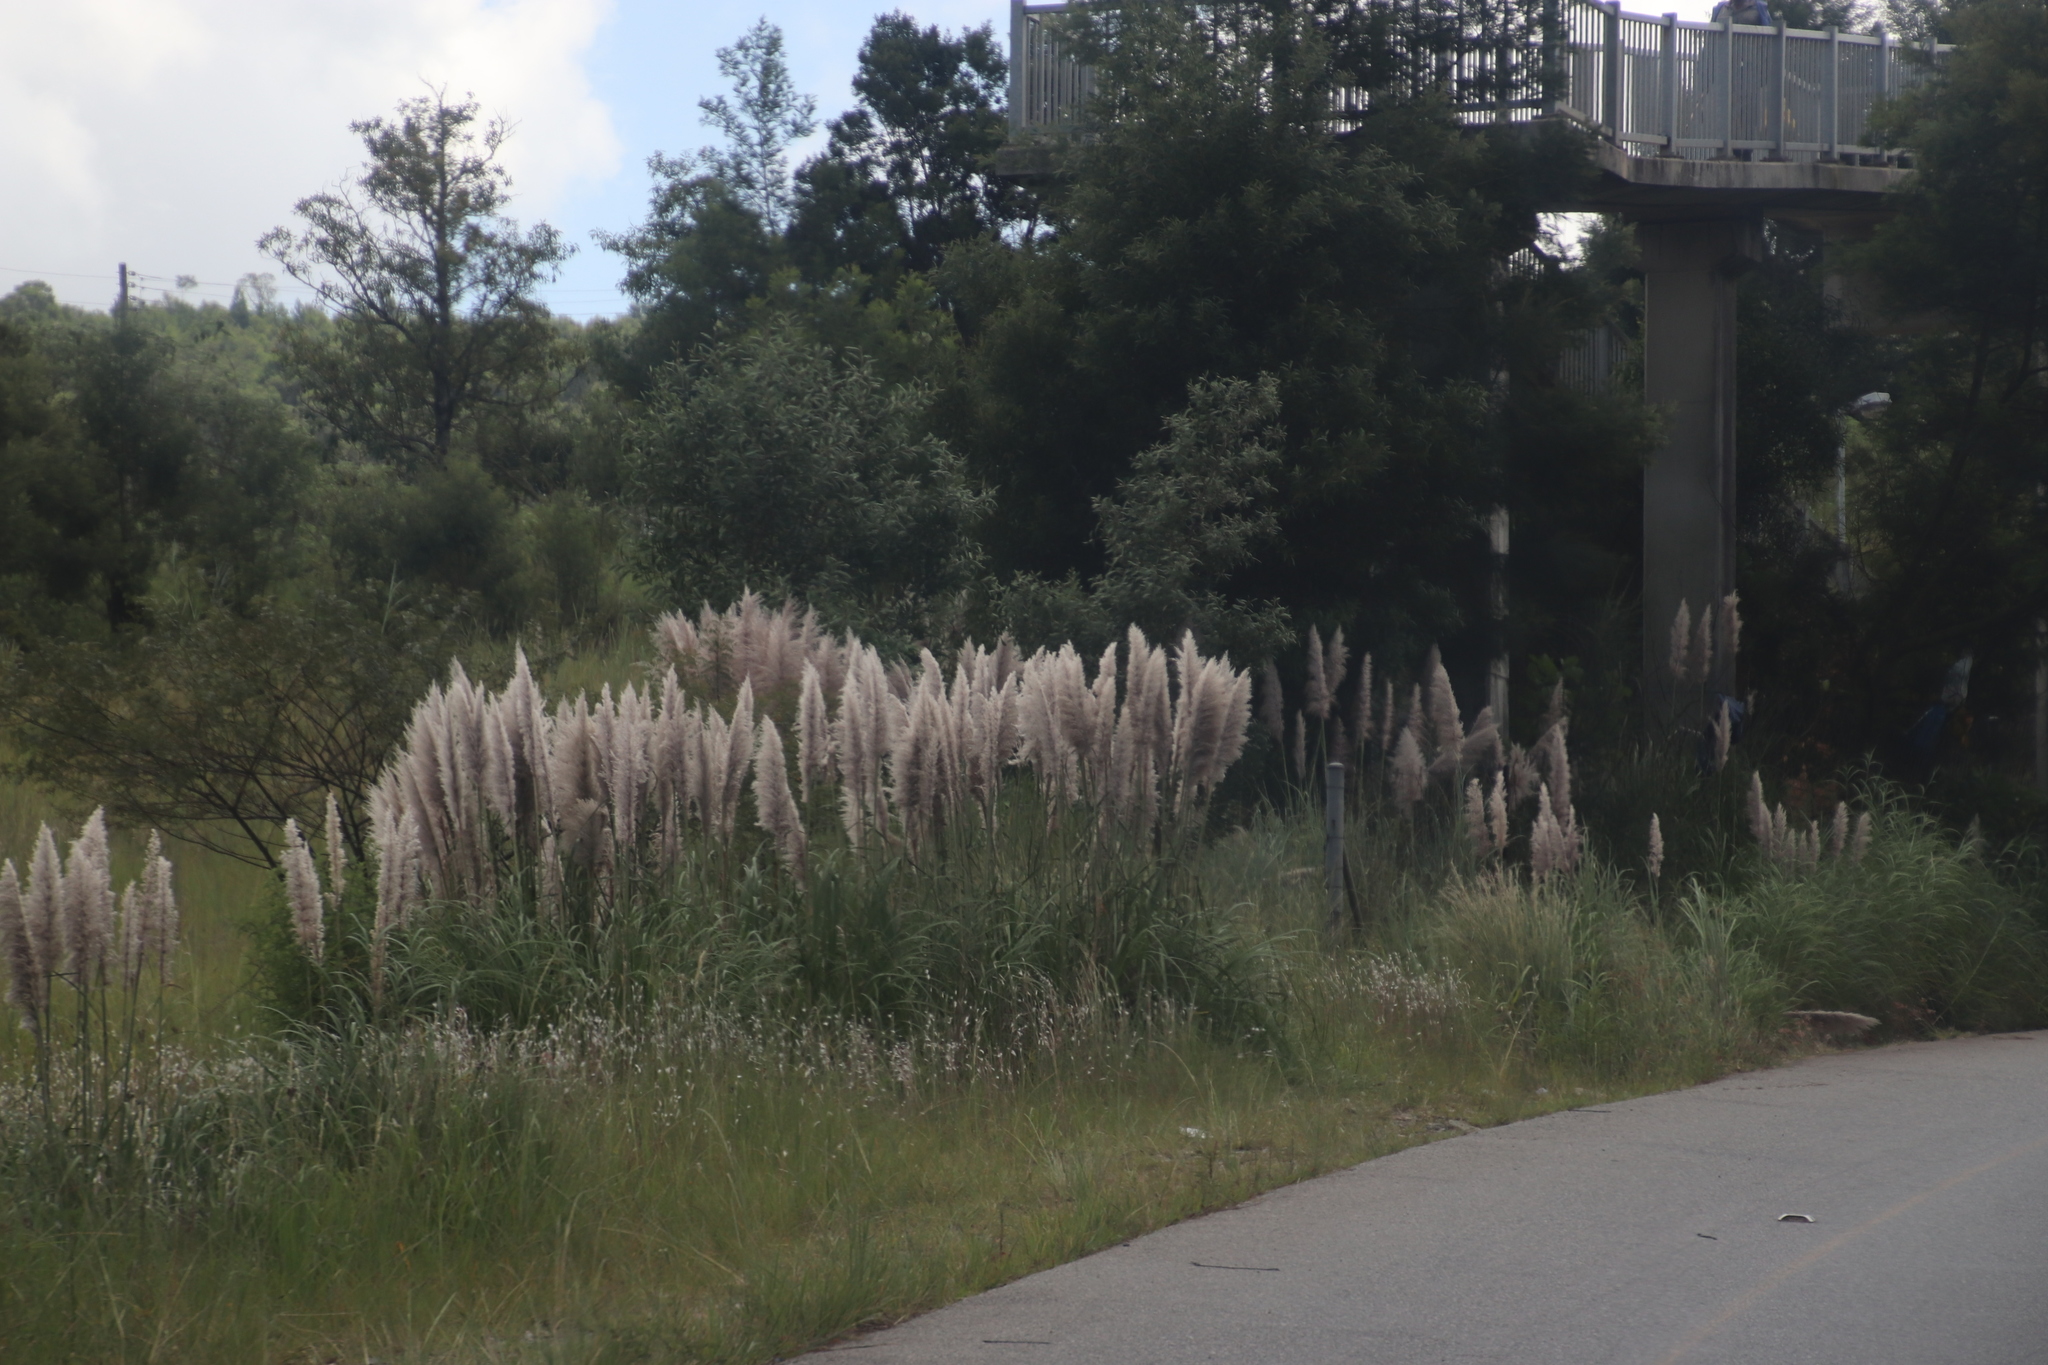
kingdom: Plantae
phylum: Tracheophyta
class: Liliopsida
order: Poales
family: Poaceae
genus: Cortaderia
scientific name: Cortaderia selloana
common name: Uruguayan pampas grass
